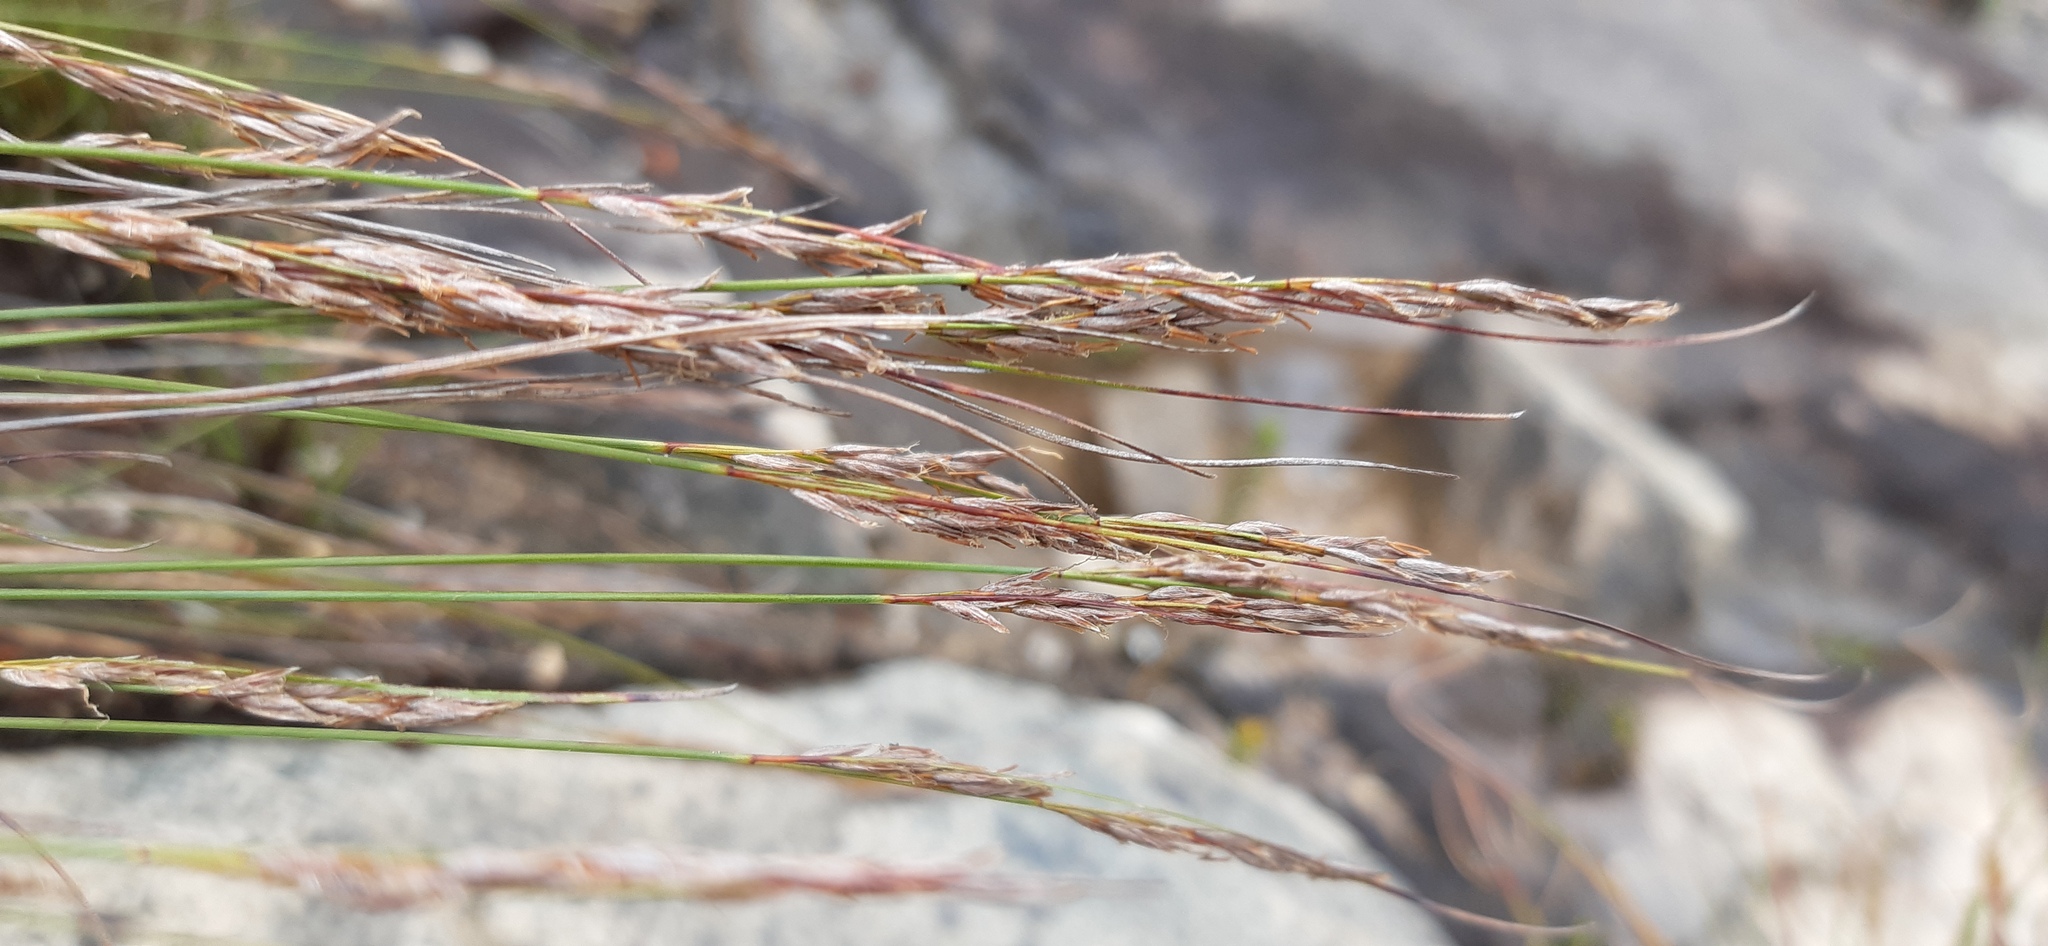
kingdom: Plantae
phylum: Tracheophyta
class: Liliopsida
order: Poales
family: Cyperaceae
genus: Schoenus
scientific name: Schoenus exilis
